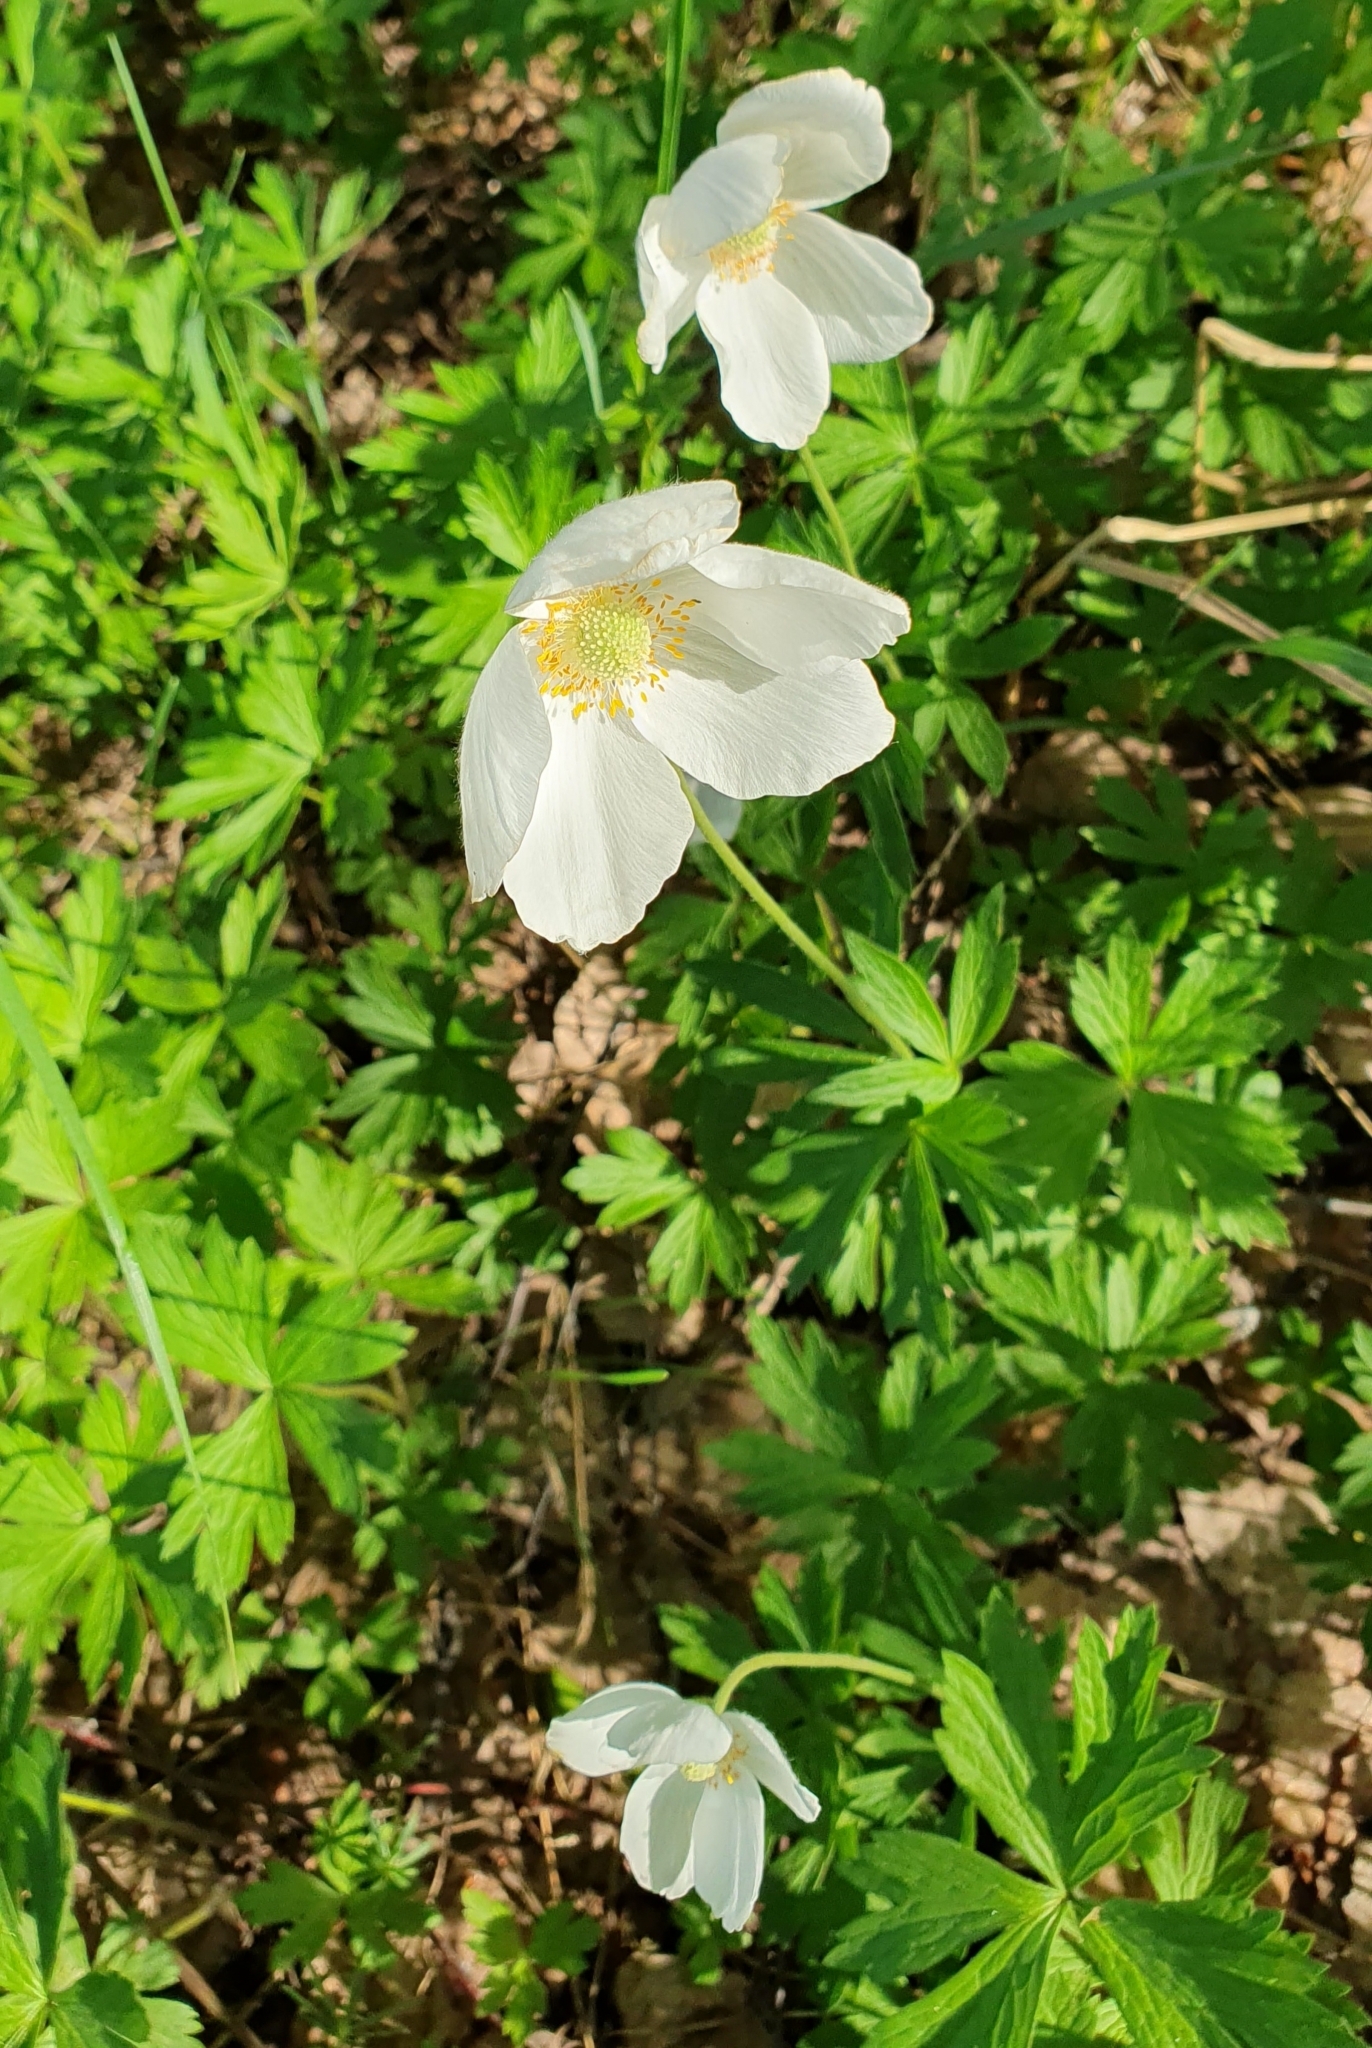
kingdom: Plantae
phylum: Tracheophyta
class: Magnoliopsida
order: Ranunculales
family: Ranunculaceae
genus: Anemone
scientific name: Anemone sylvestris
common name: Snowdrop anemone
